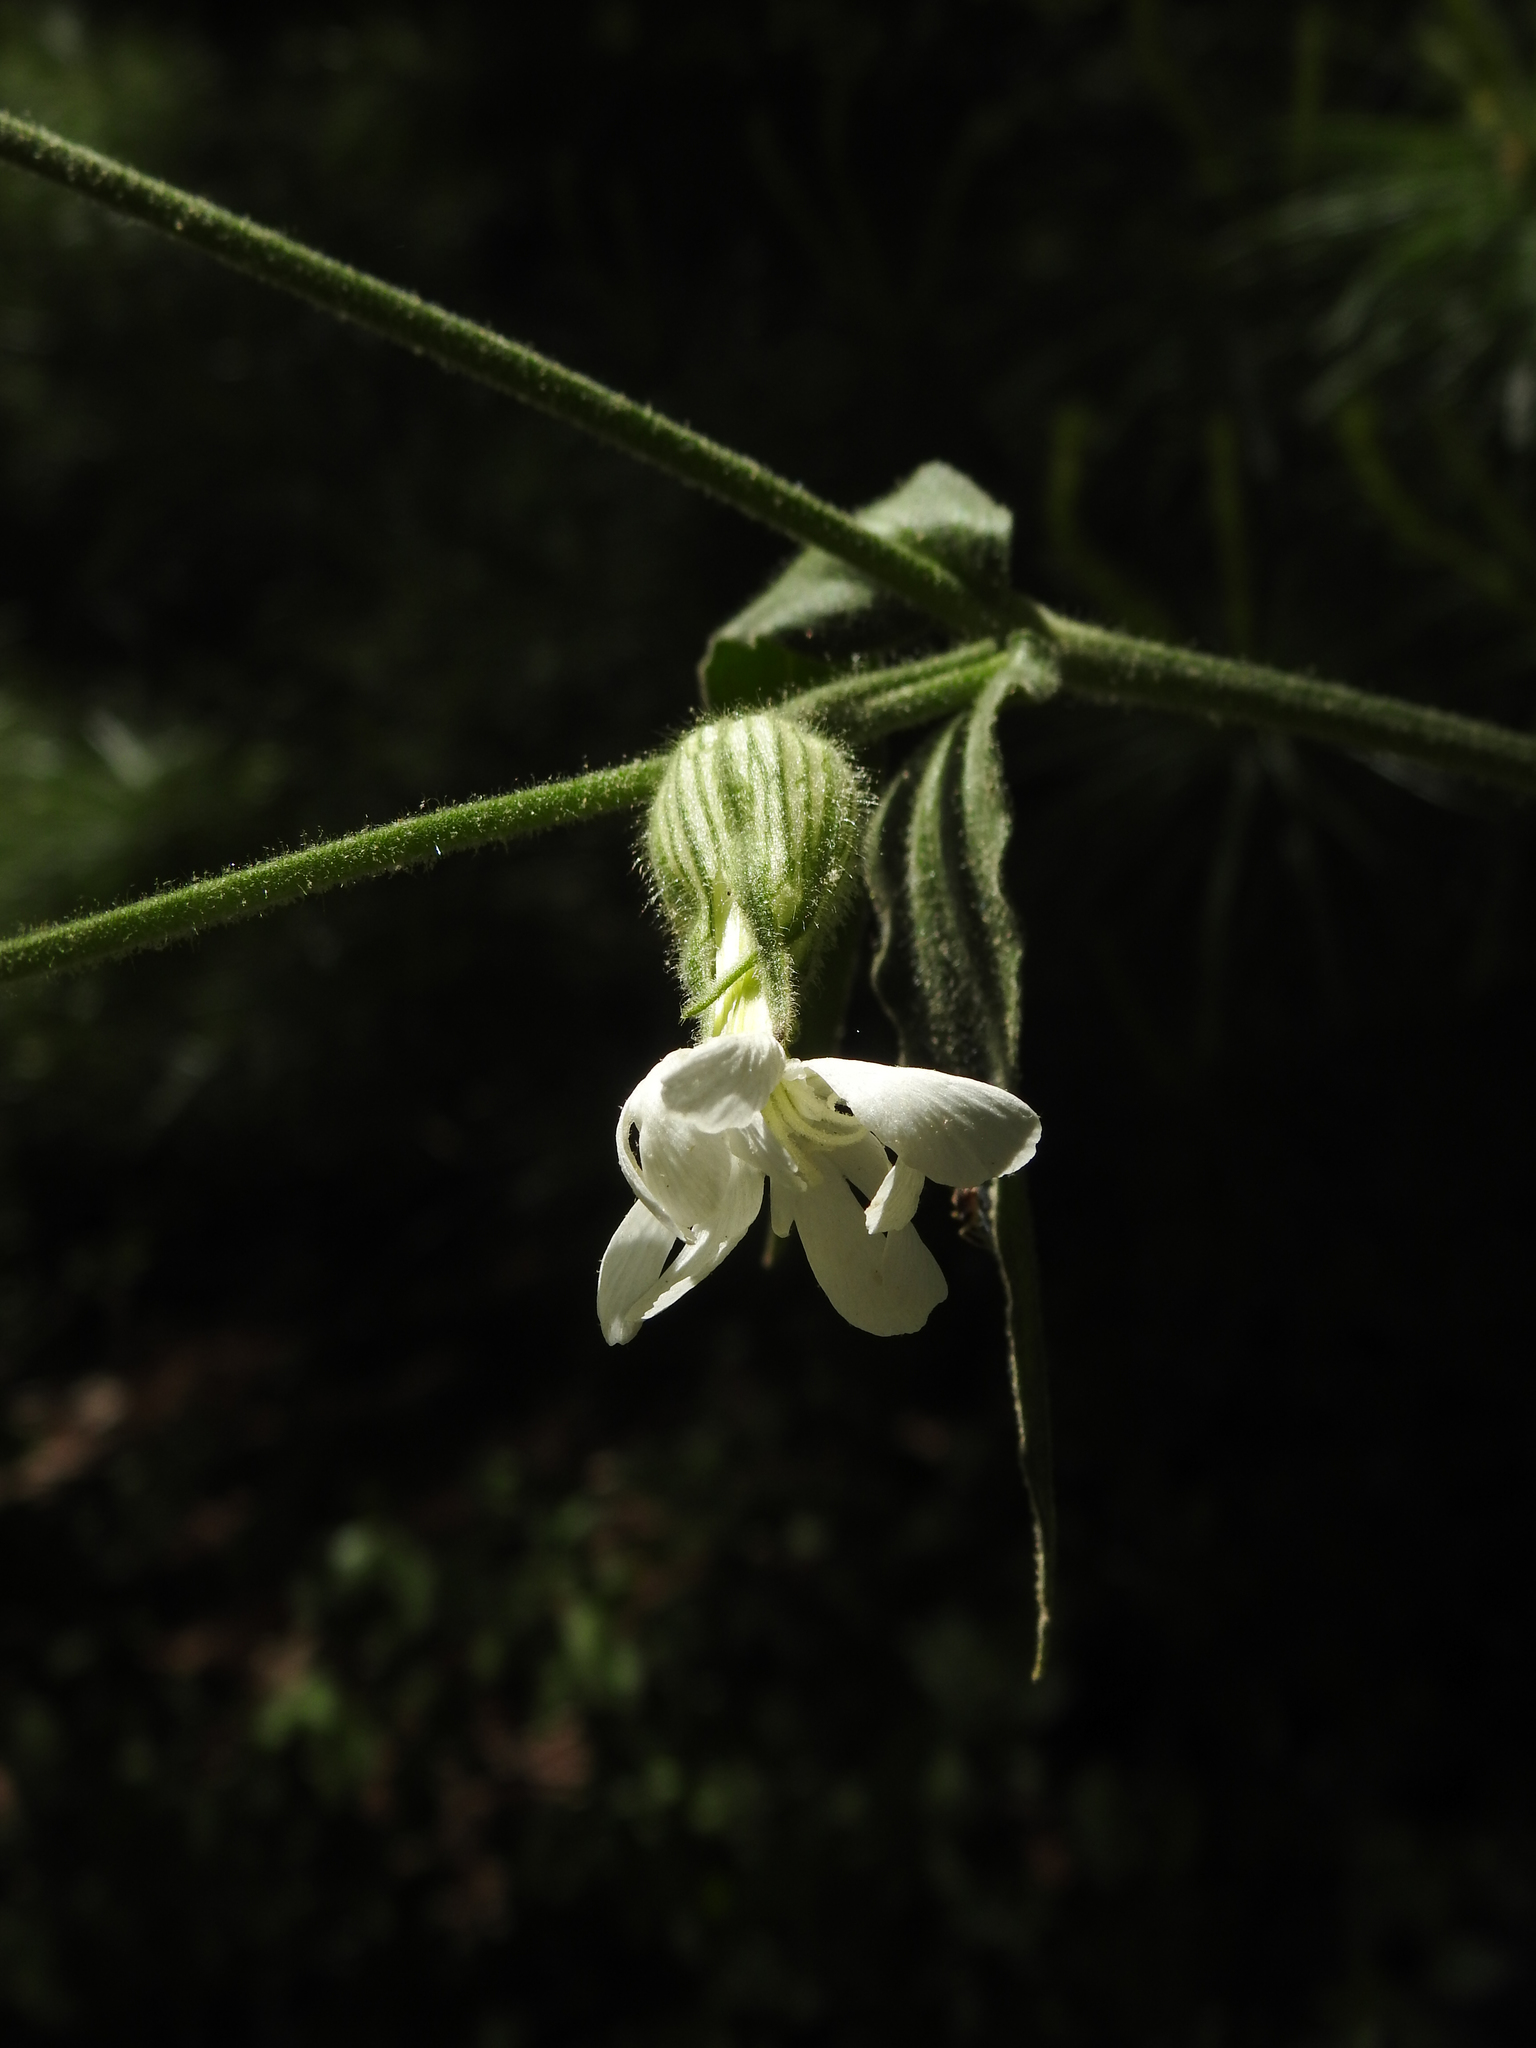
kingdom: Plantae
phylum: Tracheophyta
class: Magnoliopsida
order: Caryophyllales
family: Caryophyllaceae
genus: Silene
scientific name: Silene latifolia
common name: White campion
